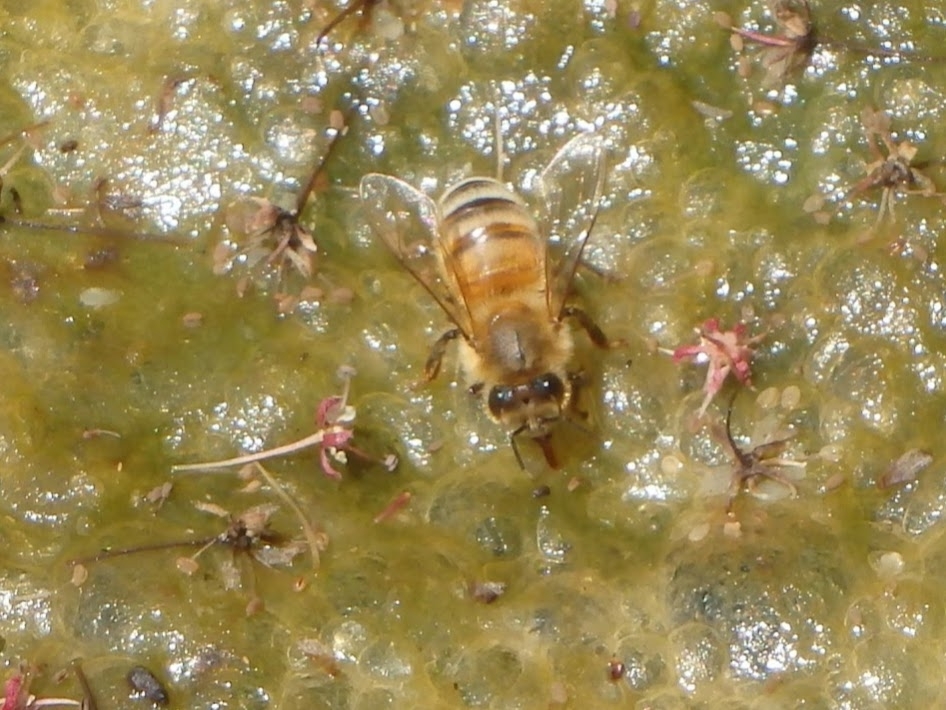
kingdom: Animalia
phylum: Arthropoda
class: Insecta
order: Hymenoptera
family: Apidae
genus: Apis
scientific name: Apis mellifera
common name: Honey bee
